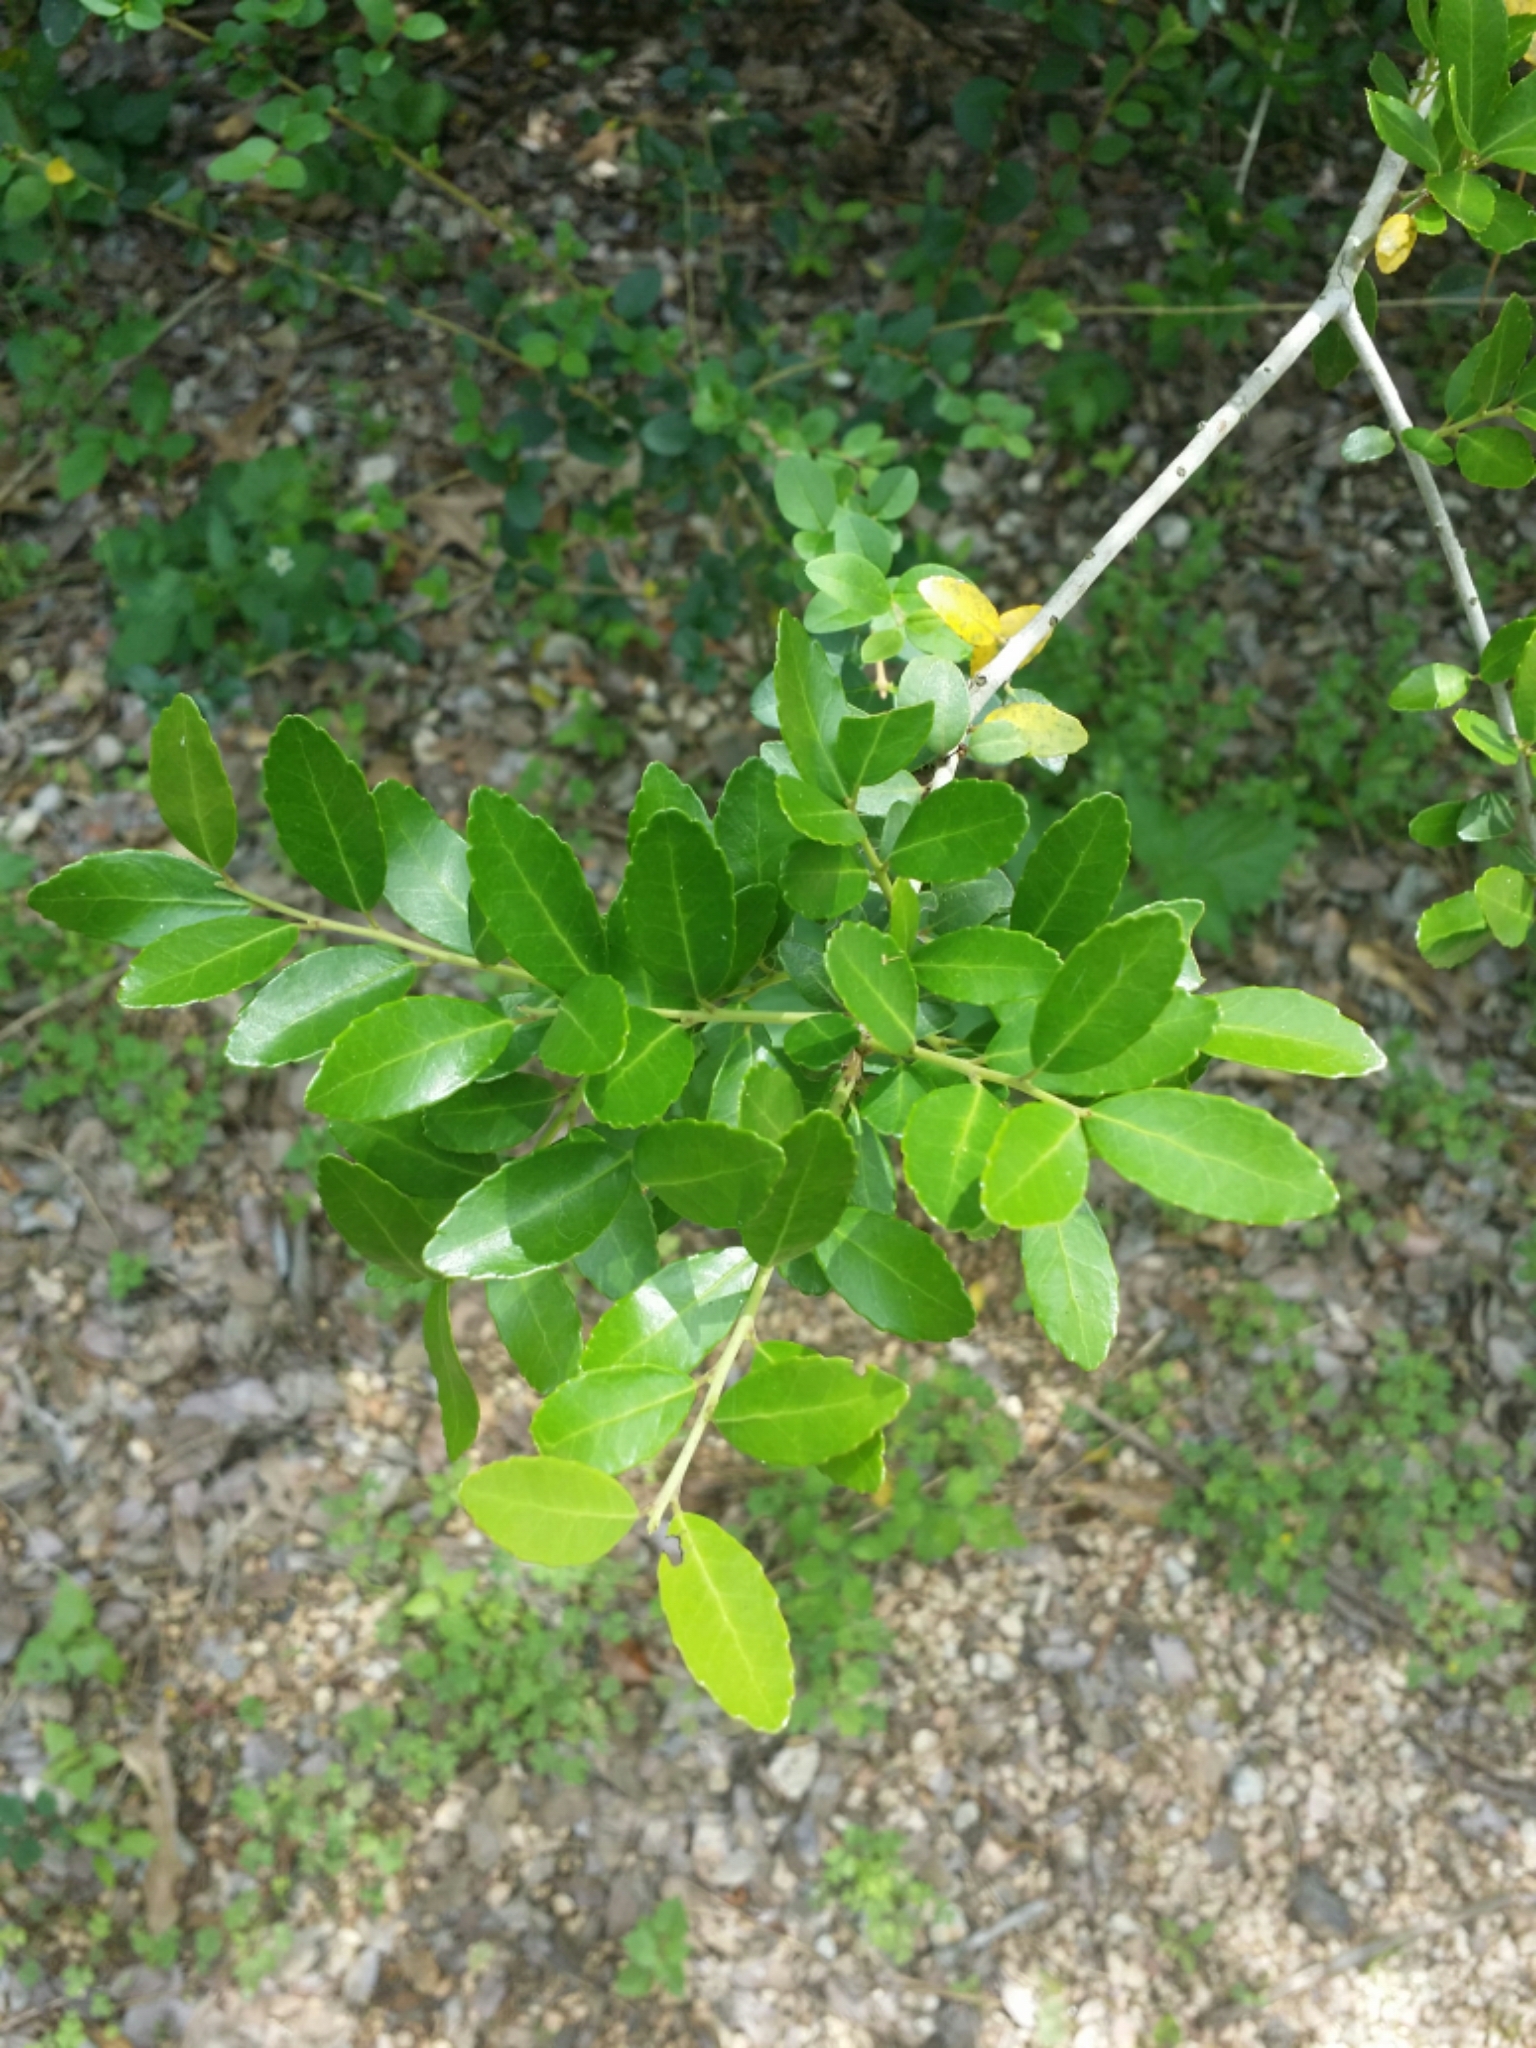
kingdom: Plantae
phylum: Tracheophyta
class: Magnoliopsida
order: Aquifoliales
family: Aquifoliaceae
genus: Ilex
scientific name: Ilex vomitoria
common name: Yaupon holly
